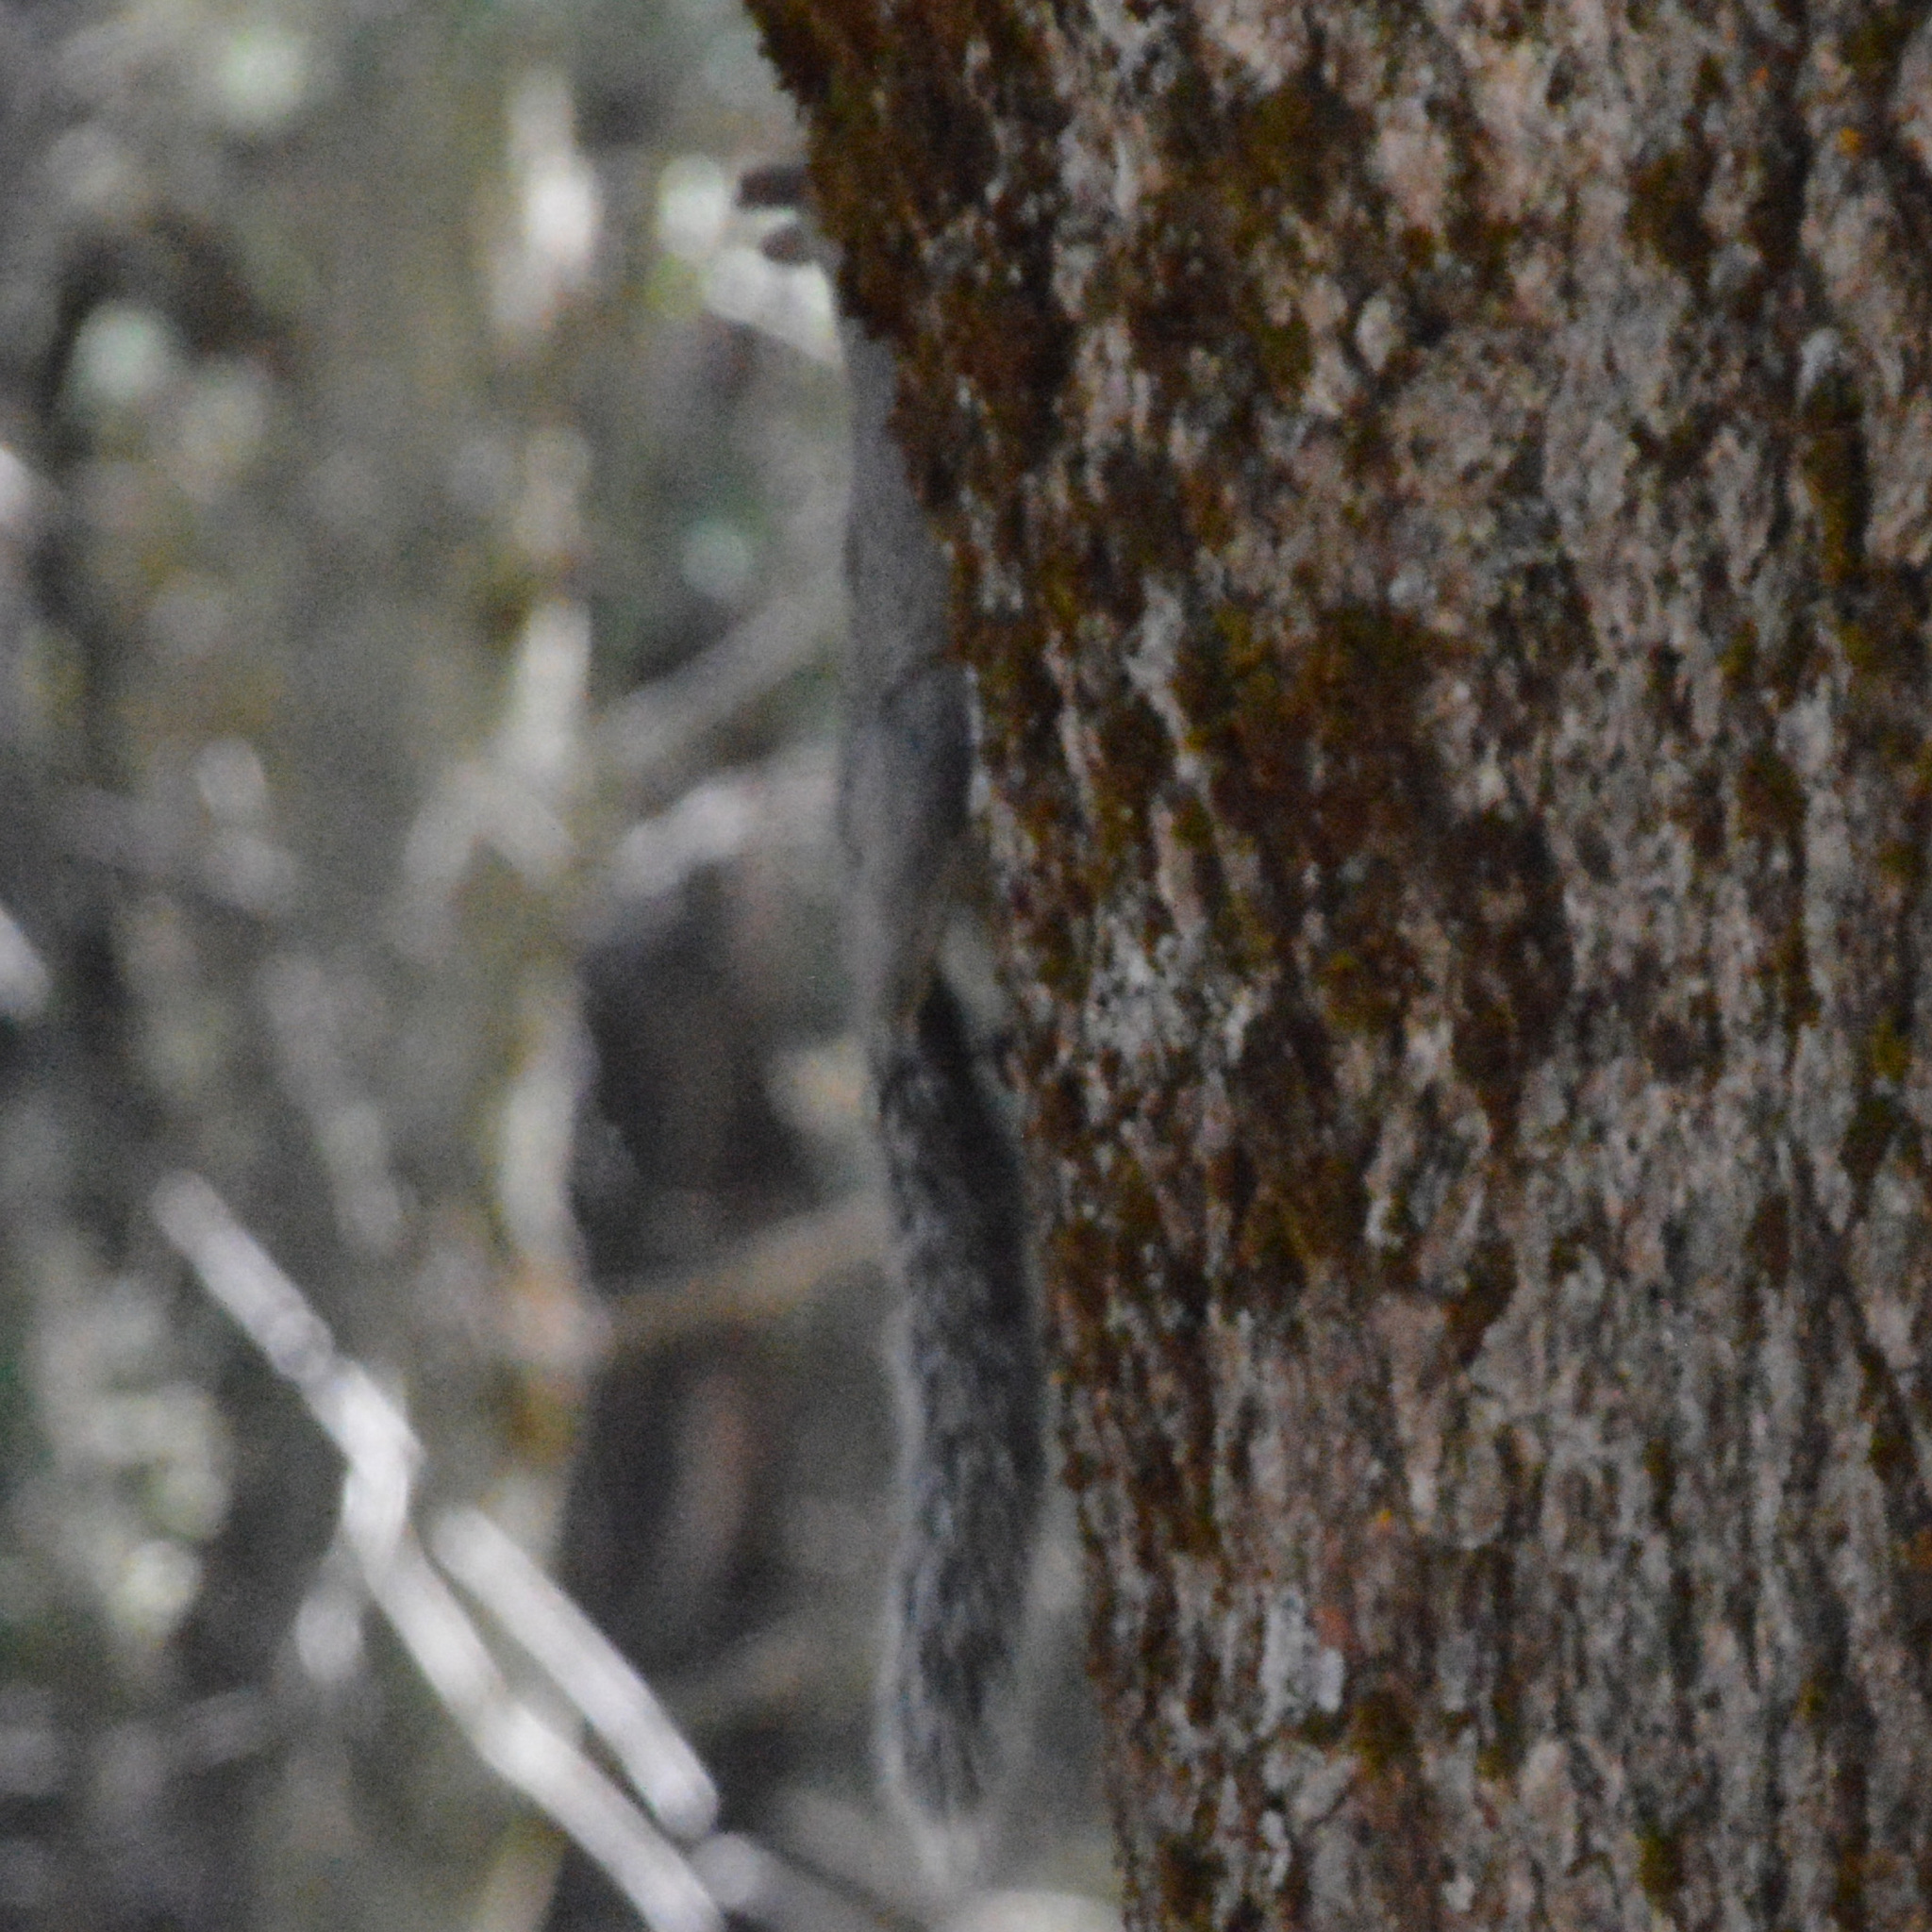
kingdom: Animalia
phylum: Chordata
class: Mammalia
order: Rodentia
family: Sciuridae
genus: Sciurus
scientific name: Sciurus griseus
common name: Western gray squirrel
